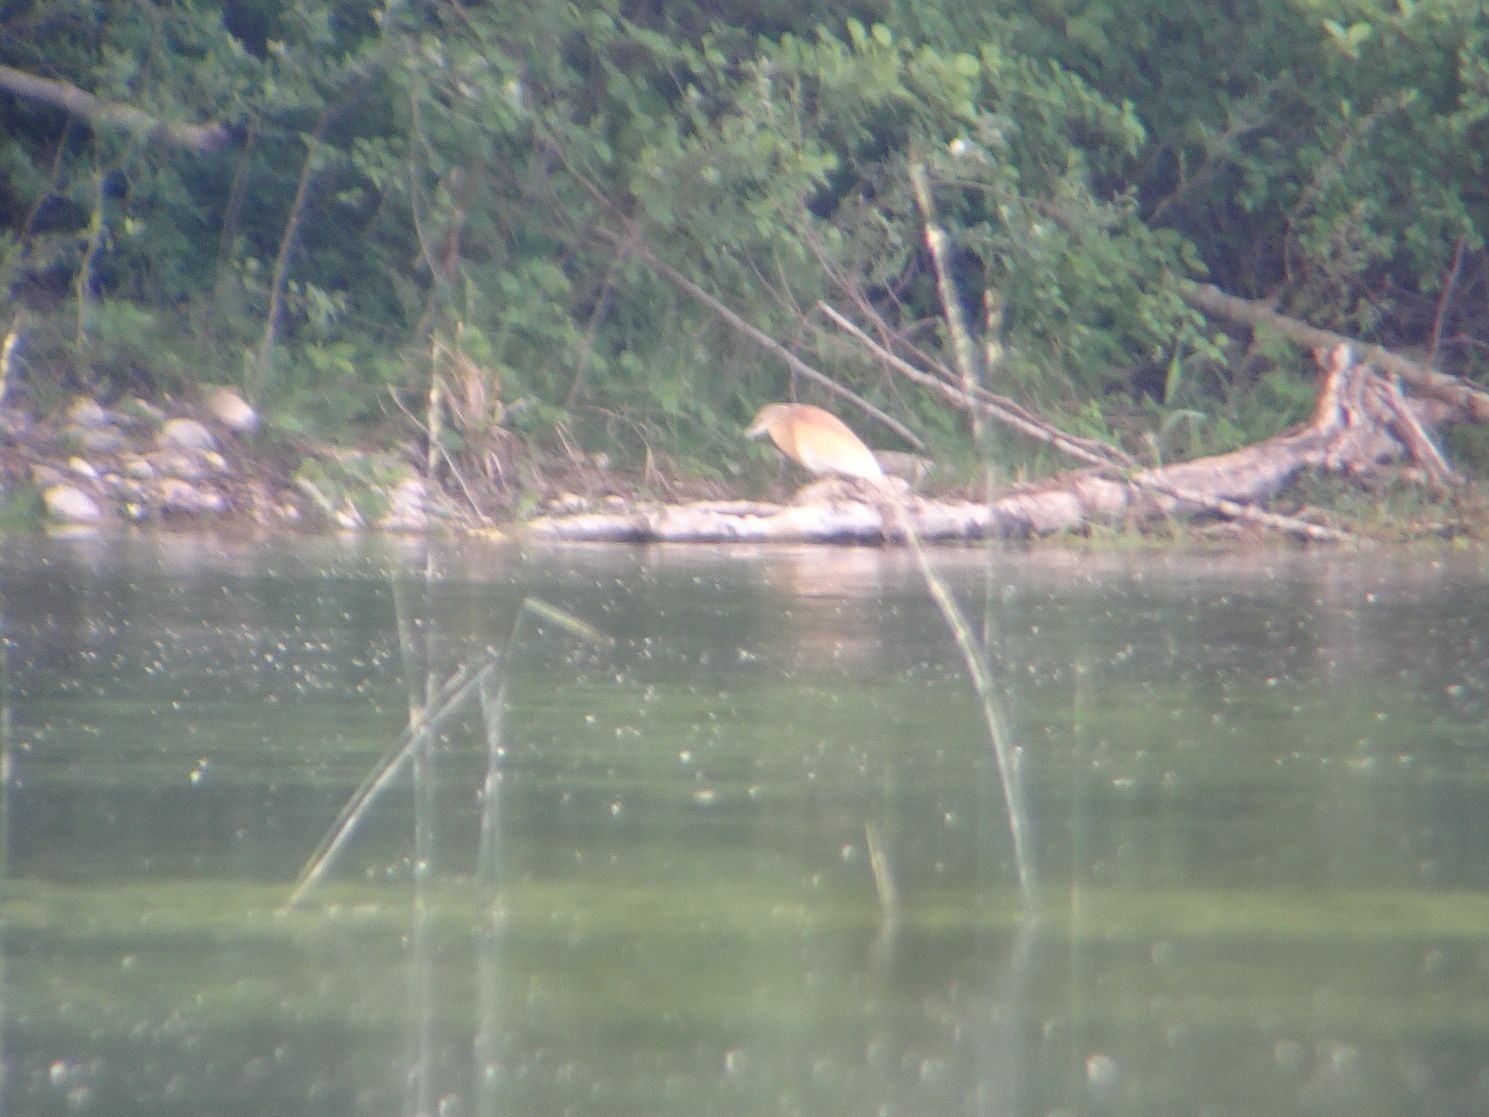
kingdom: Animalia
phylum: Chordata
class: Aves
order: Pelecaniformes
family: Ardeidae
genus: Ardeola
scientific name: Ardeola ralloides
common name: Squacco heron
